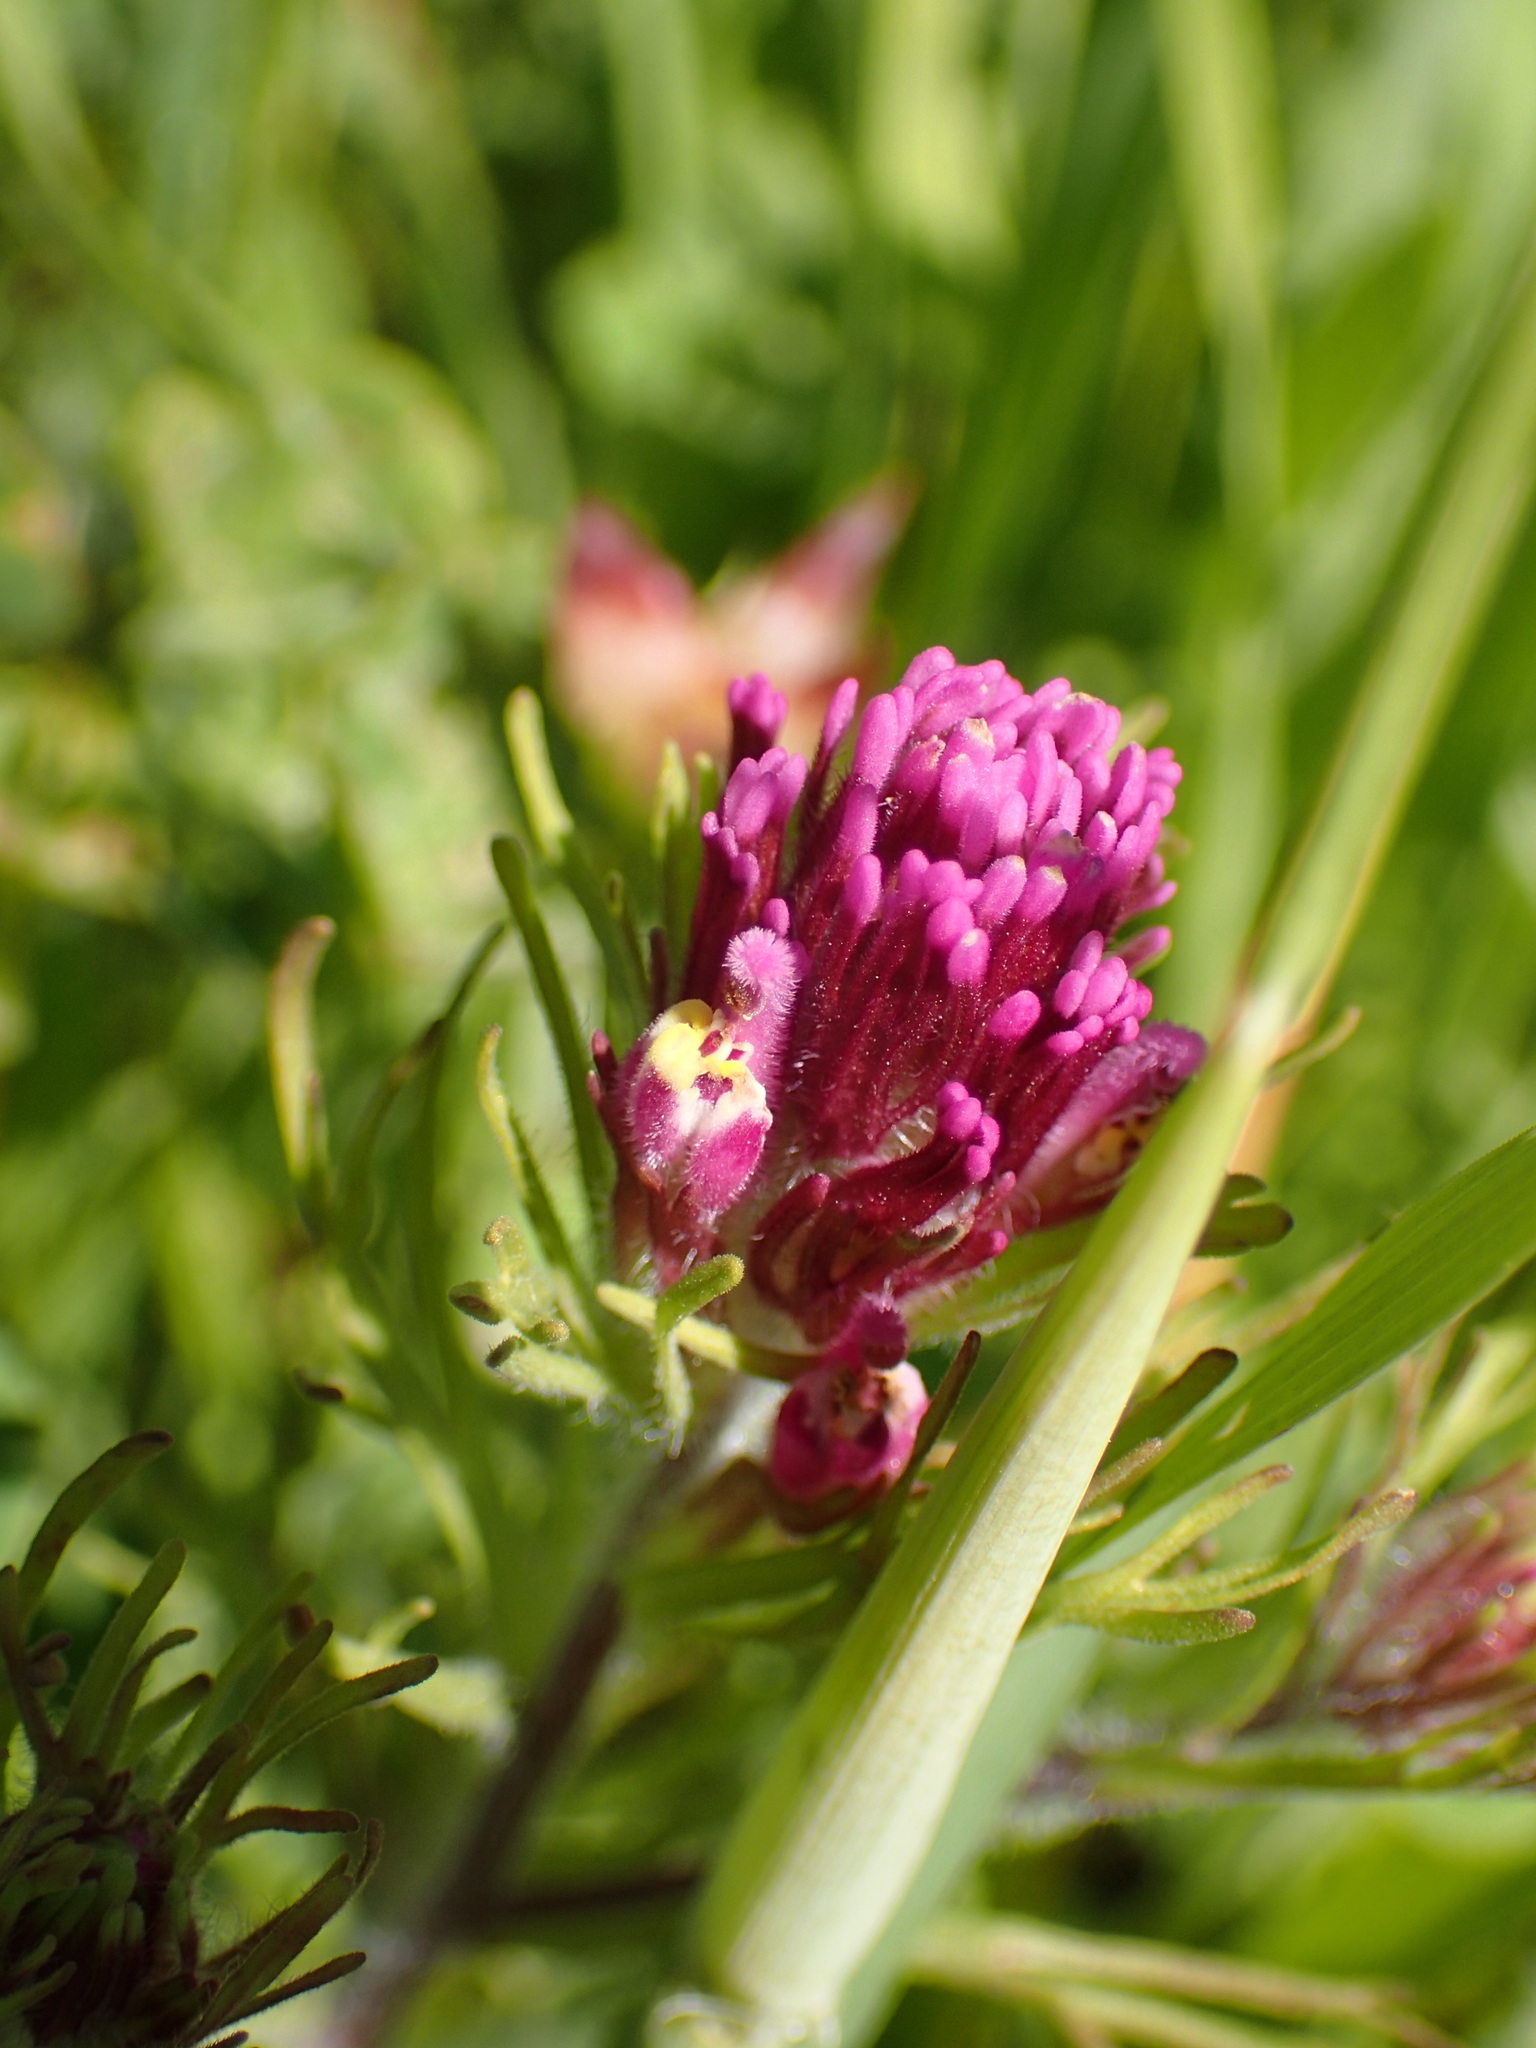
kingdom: Plantae
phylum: Tracheophyta
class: Magnoliopsida
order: Lamiales
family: Orobanchaceae
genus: Castilleja
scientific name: Castilleja exserta
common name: Purple owl-clover
